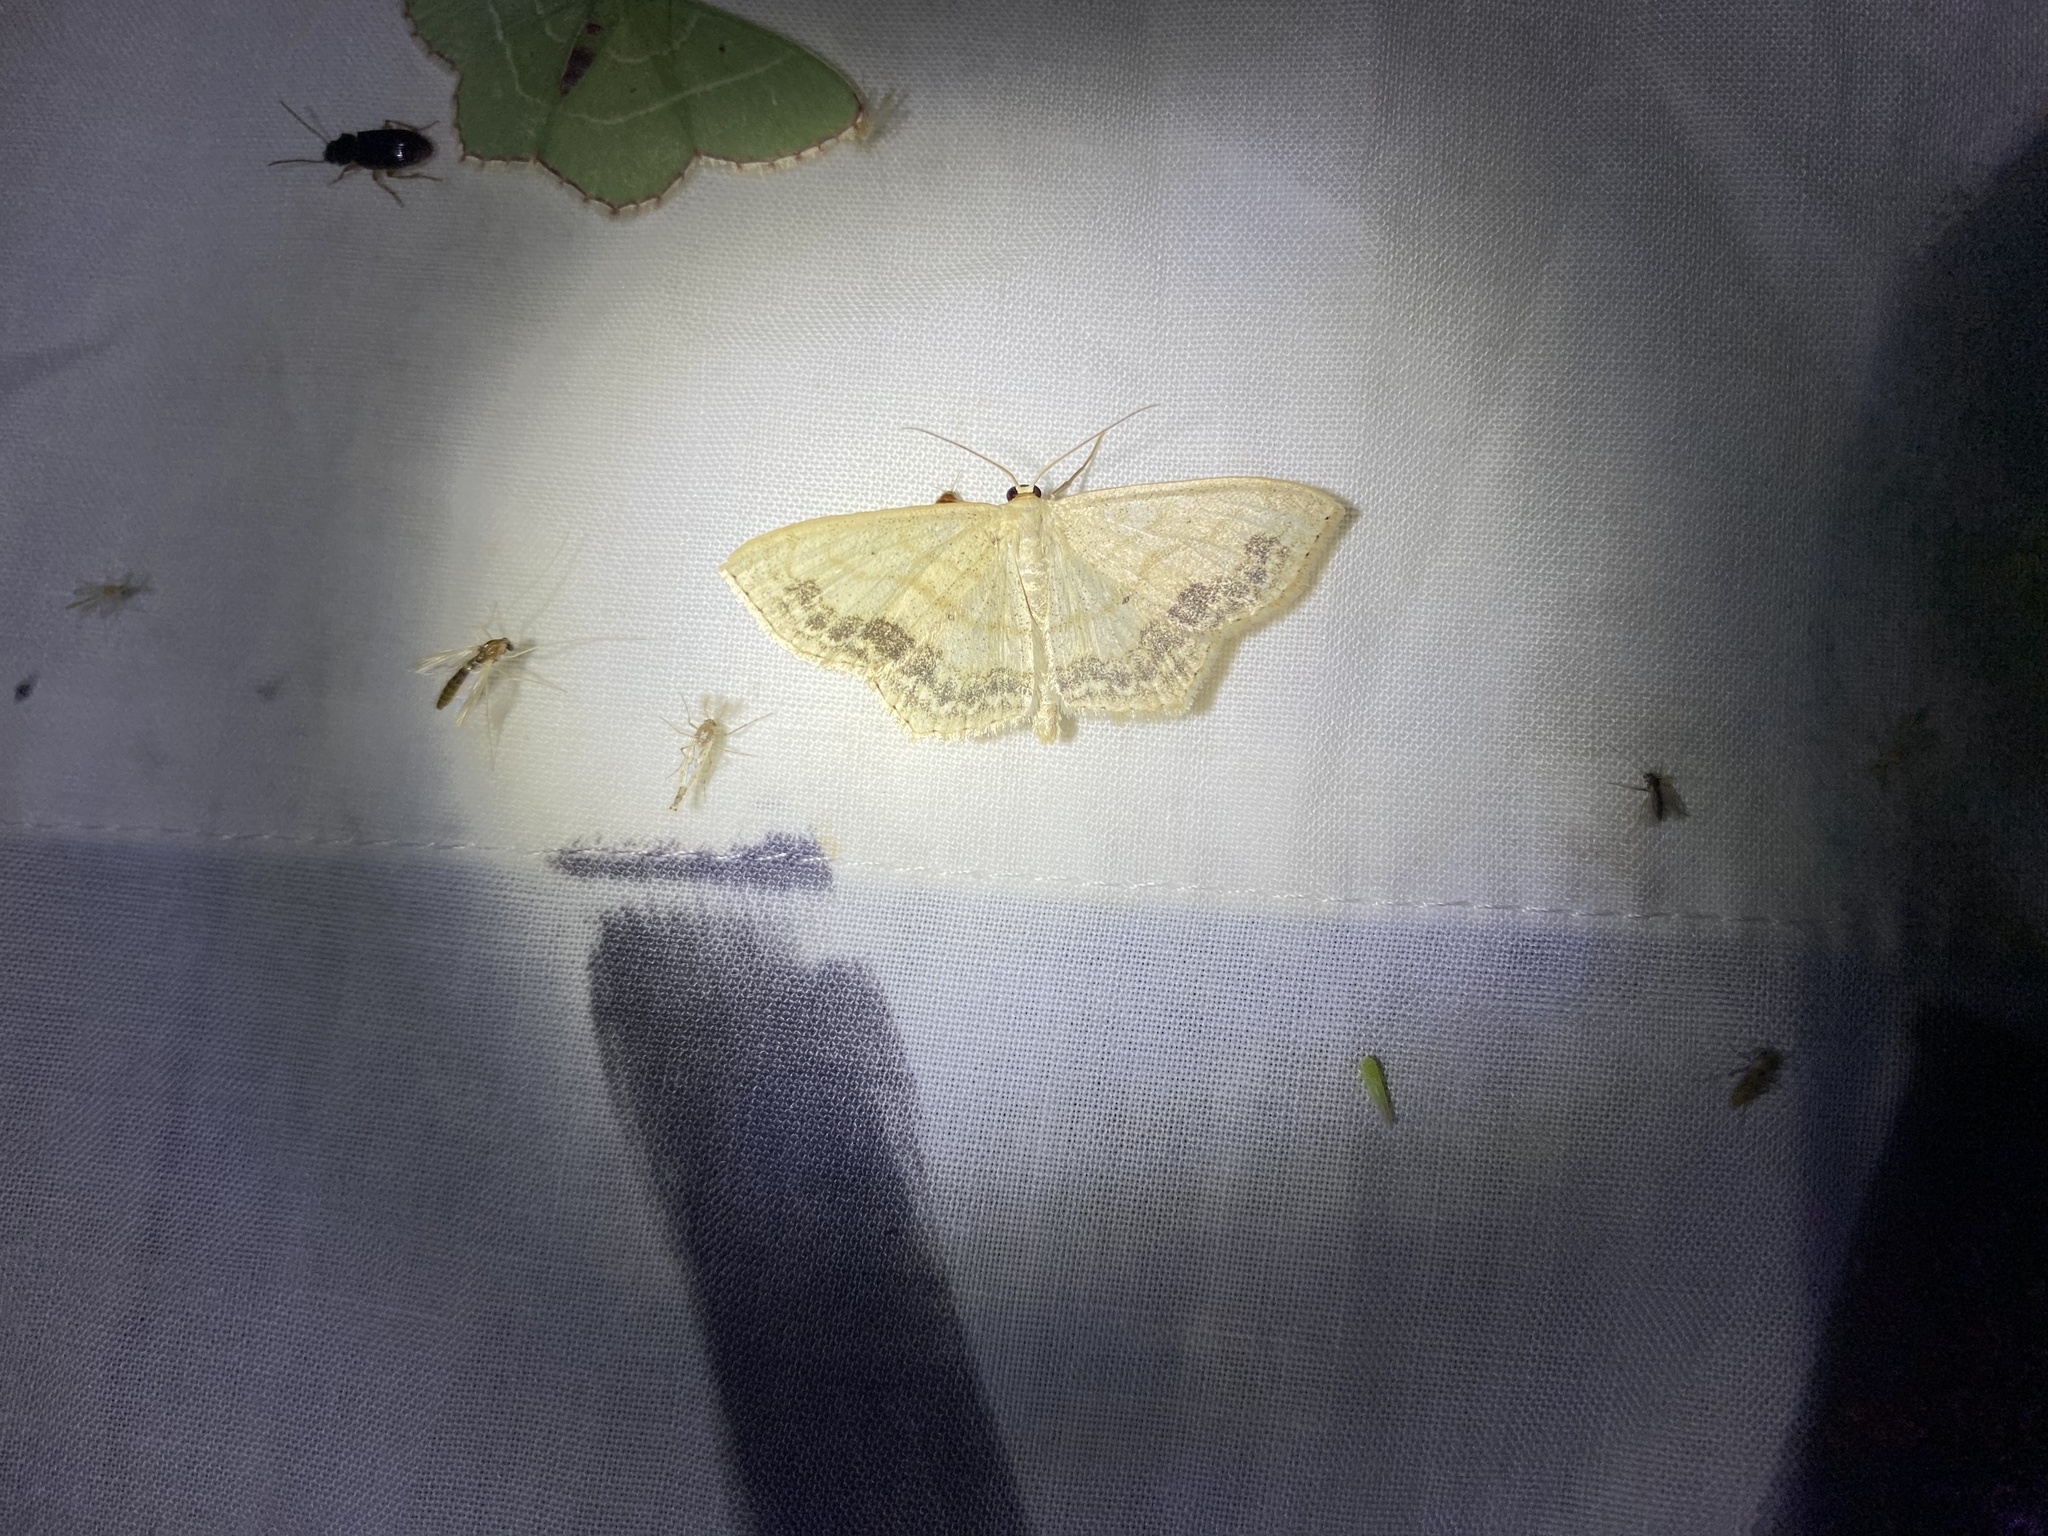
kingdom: Animalia
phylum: Arthropoda
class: Insecta
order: Lepidoptera
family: Geometridae
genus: Scopula
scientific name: Scopula limboundata
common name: Large lace border
